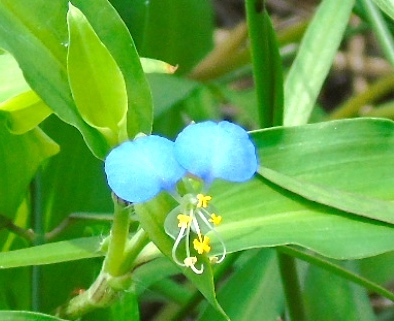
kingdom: Plantae
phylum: Tracheophyta
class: Liliopsida
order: Commelinales
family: Commelinaceae
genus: Commelina
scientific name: Commelina erecta
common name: Blousel blommetjie
